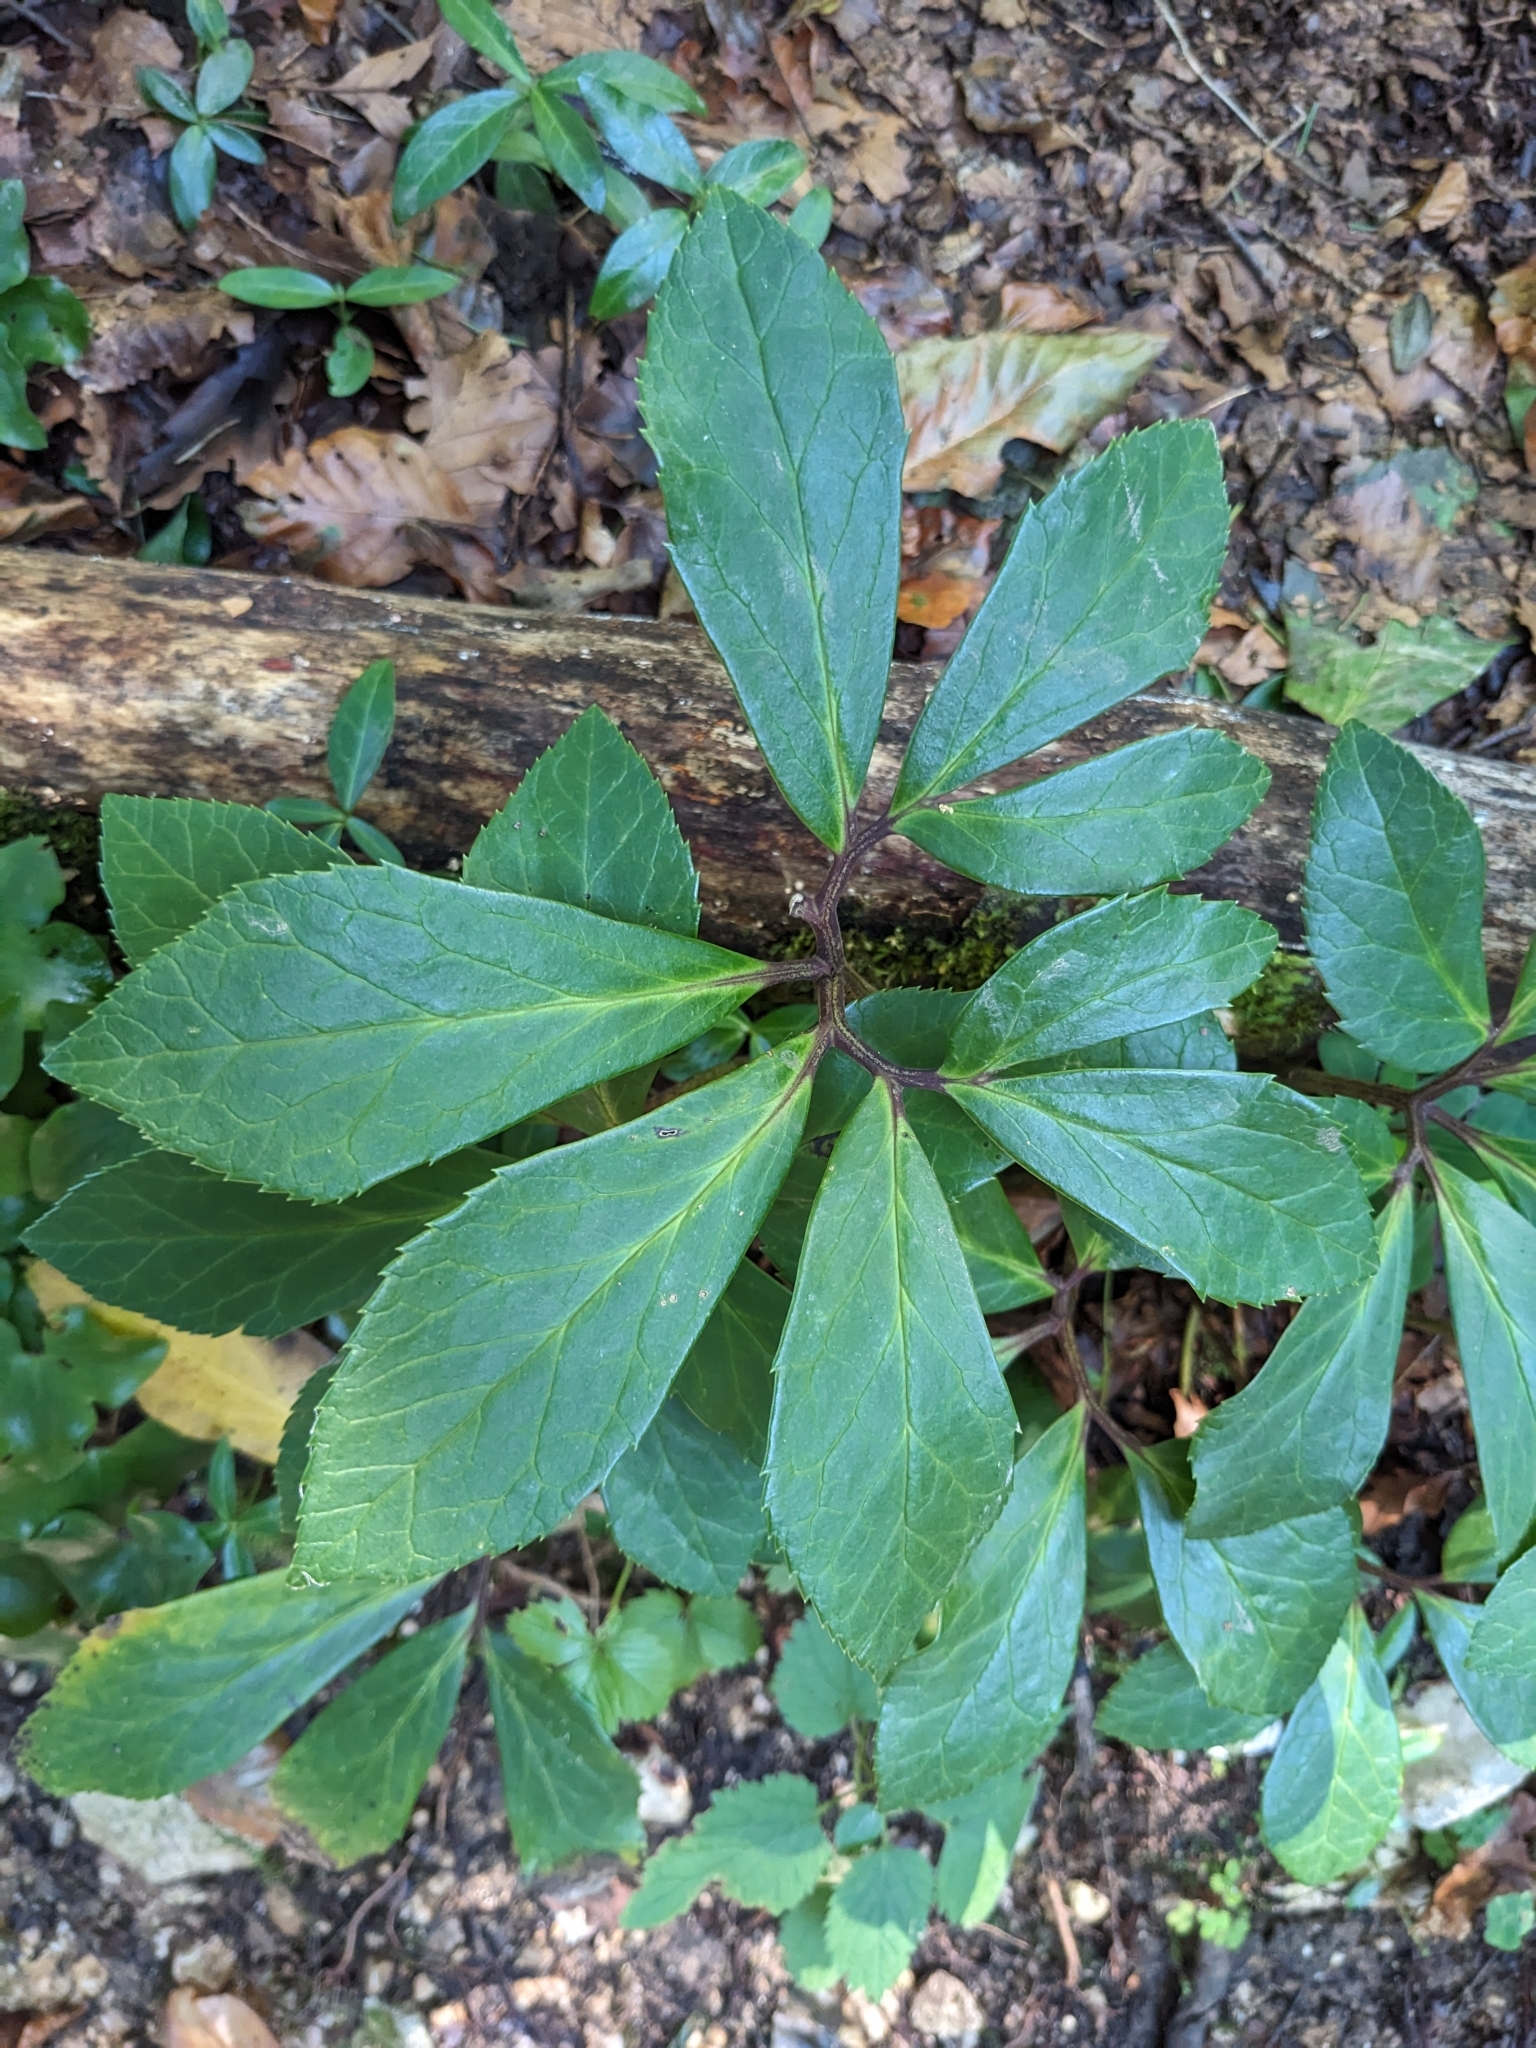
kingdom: Plantae
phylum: Tracheophyta
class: Magnoliopsida
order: Ranunculales
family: Ranunculaceae
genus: Helleborus
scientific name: Helleborus niger
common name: Black hellebore
